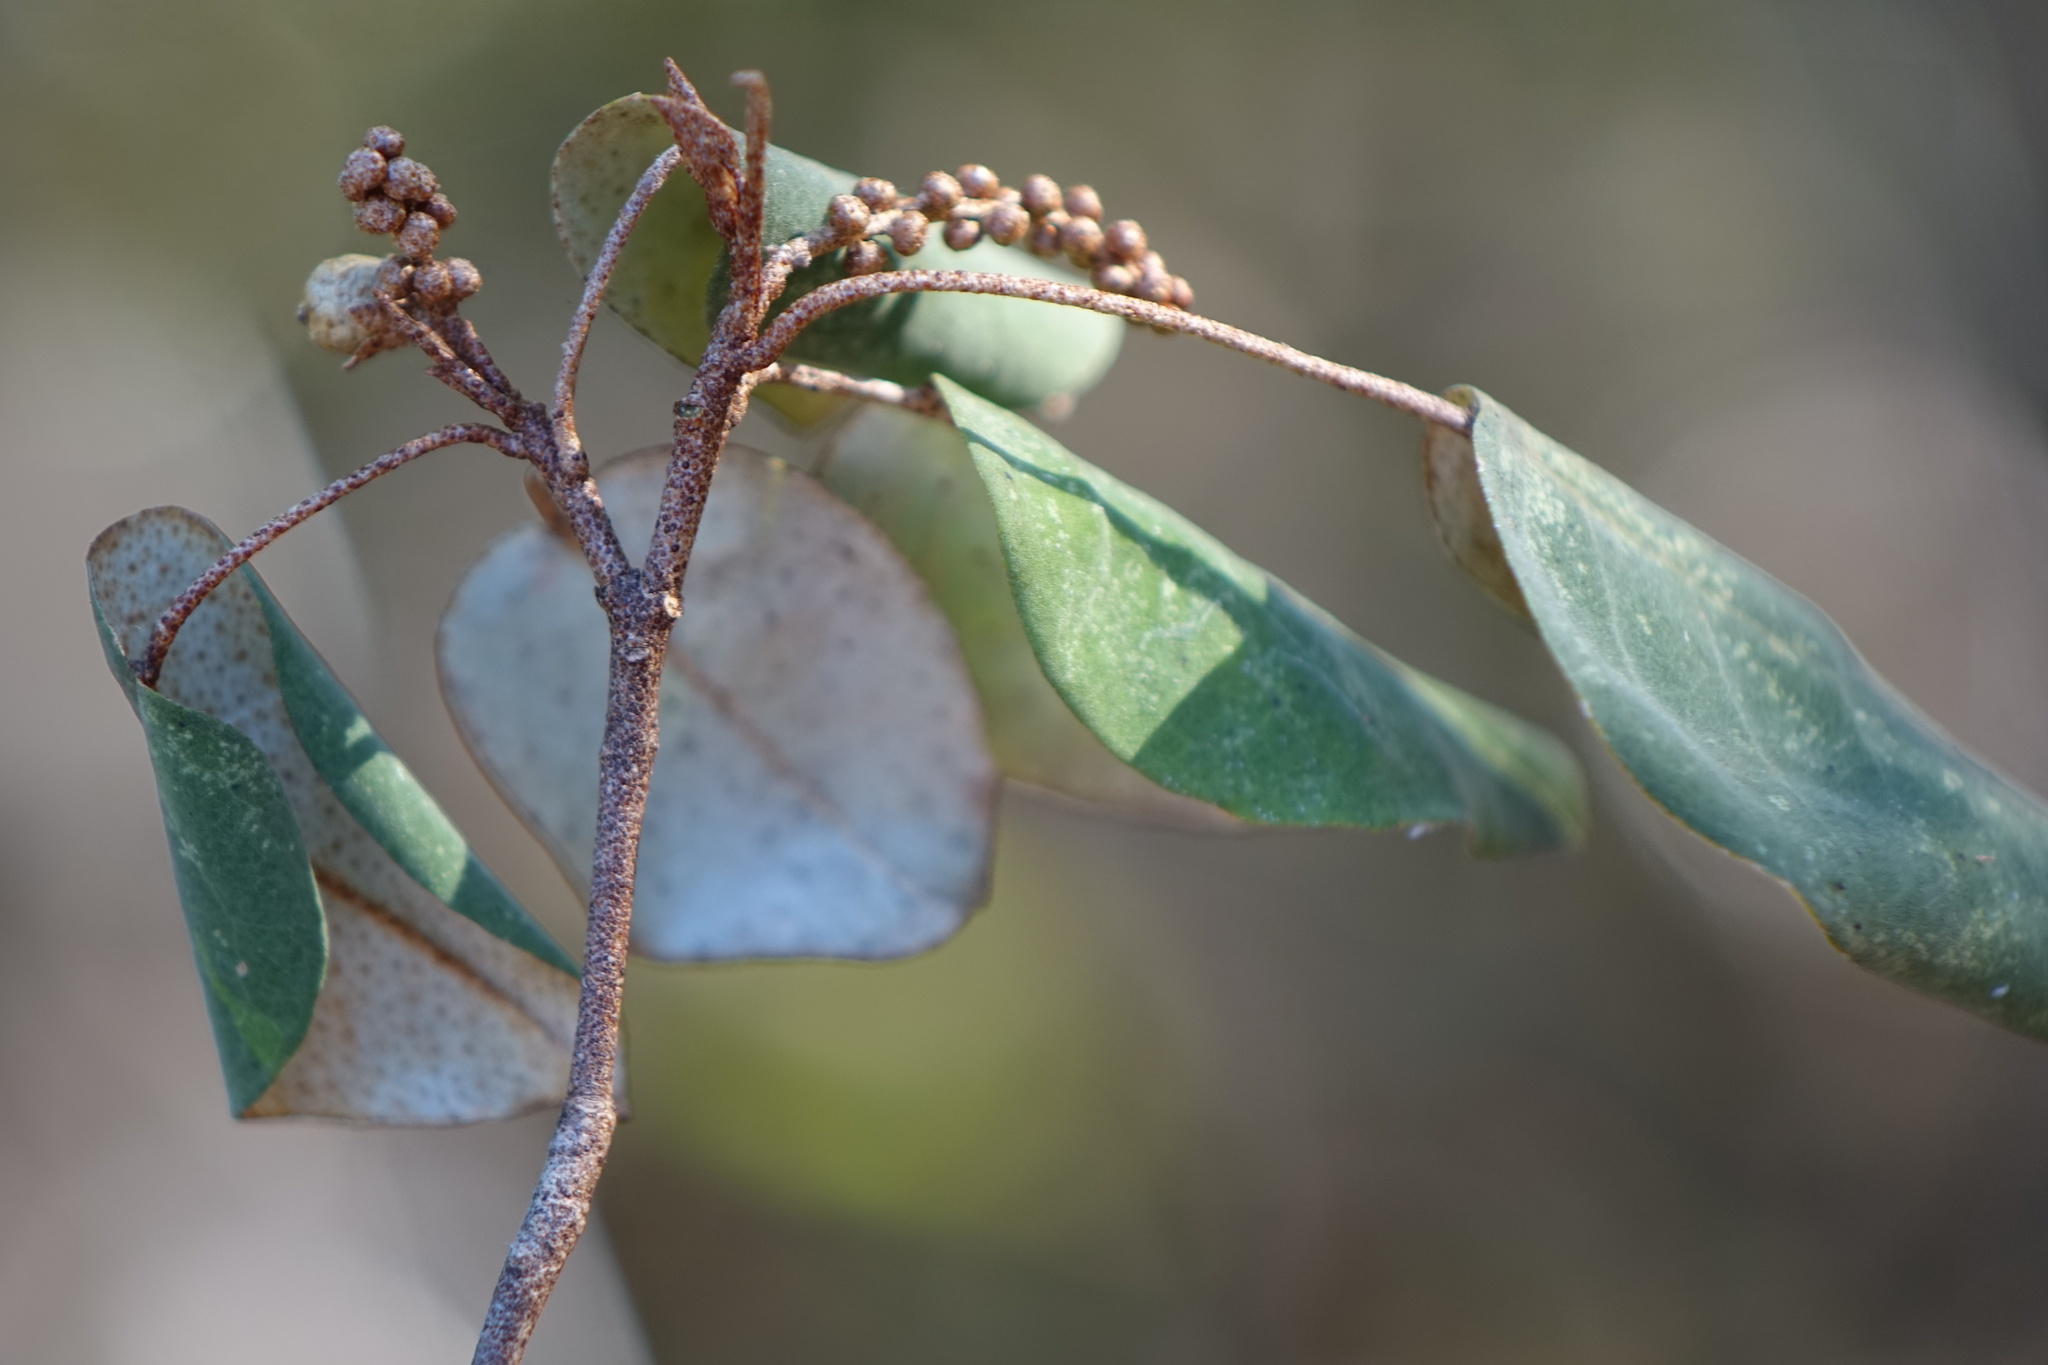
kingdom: Plantae
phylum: Tracheophyta
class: Magnoliopsida
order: Malpighiales
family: Euphorbiaceae
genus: Croton
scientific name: Croton boinensis
